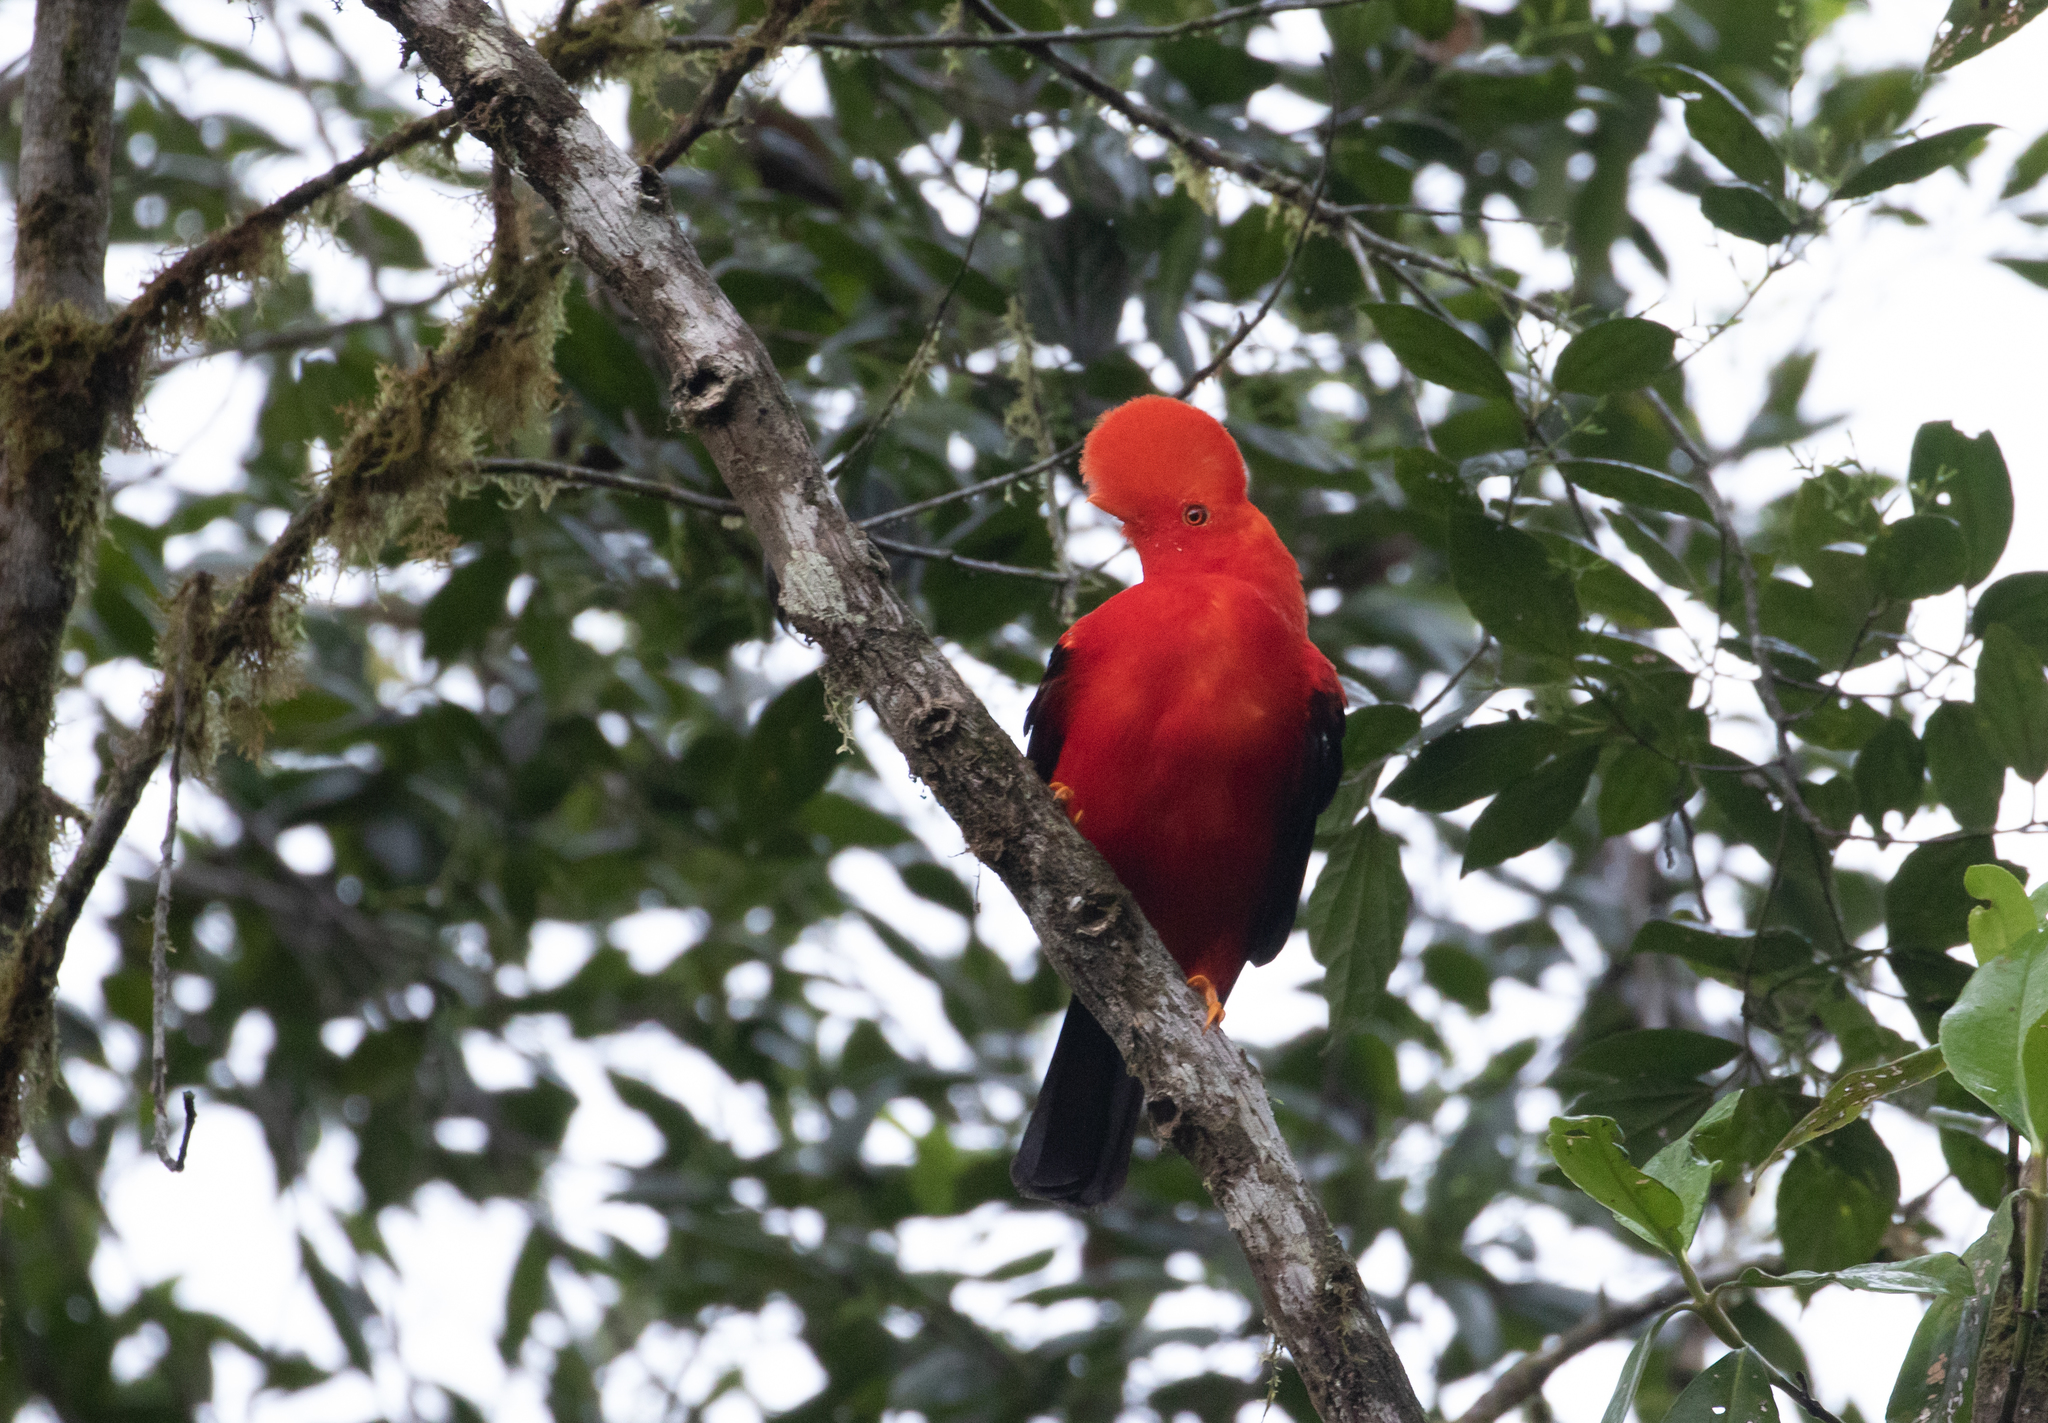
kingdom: Animalia
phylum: Chordata
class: Aves
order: Passeriformes
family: Cotingidae
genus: Rupicola
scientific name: Rupicola peruvianus
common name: Andean cock-of-the-rock
